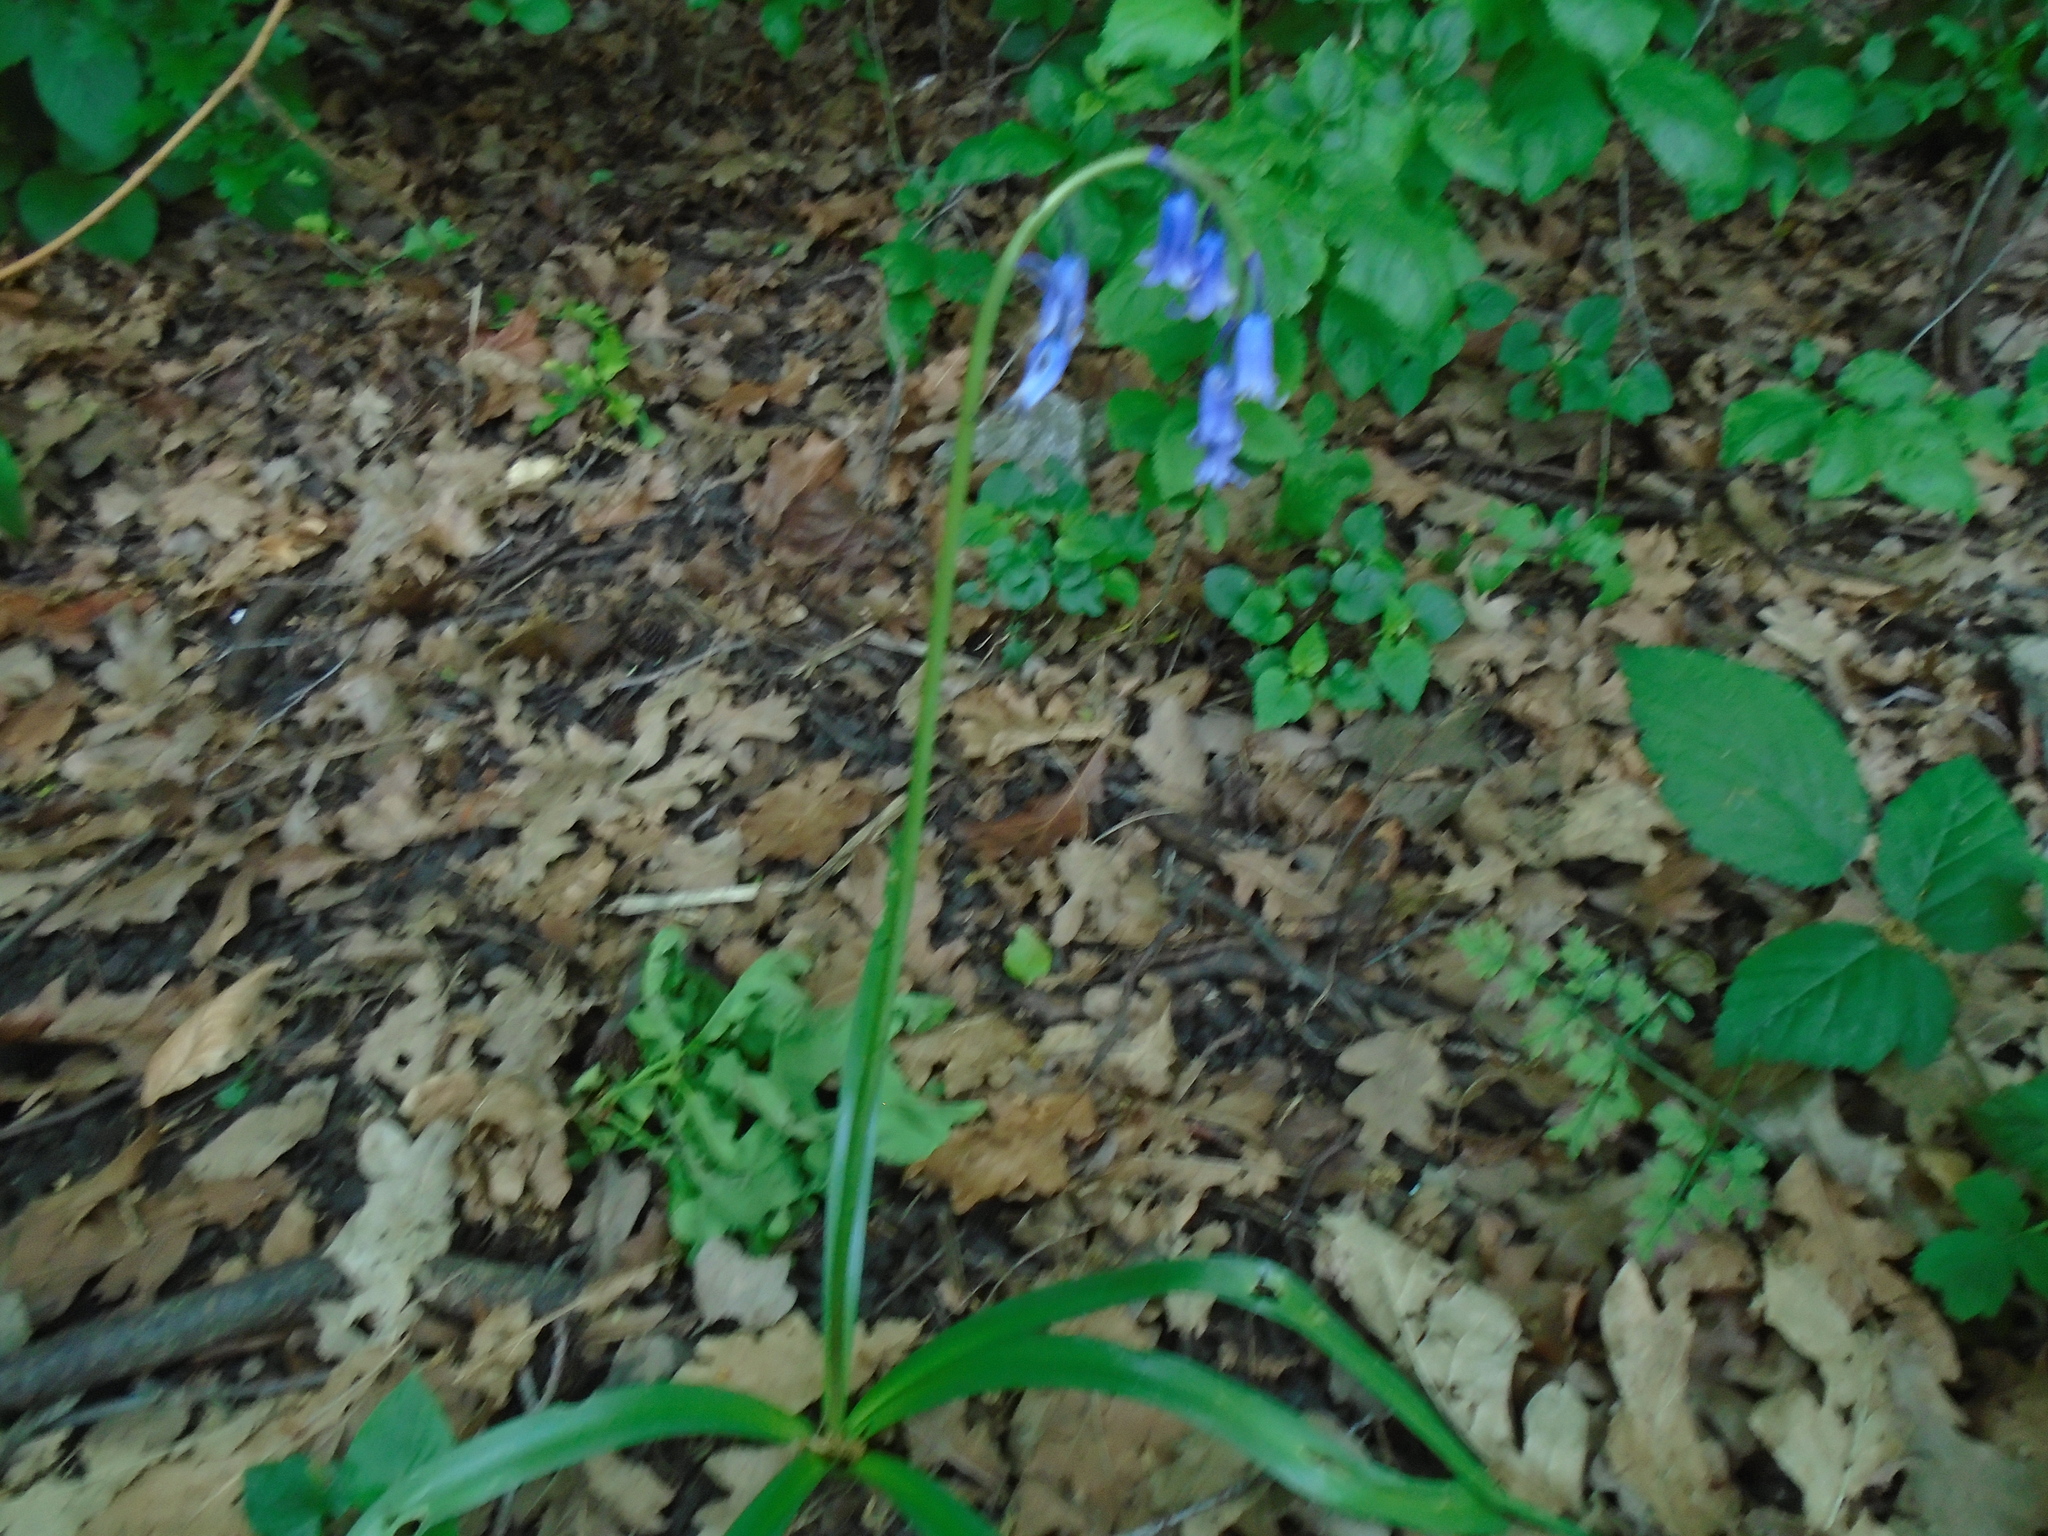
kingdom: Plantae
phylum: Tracheophyta
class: Liliopsida
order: Asparagales
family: Asparagaceae
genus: Hyacinthoides
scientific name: Hyacinthoides non-scripta
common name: Bluebell
